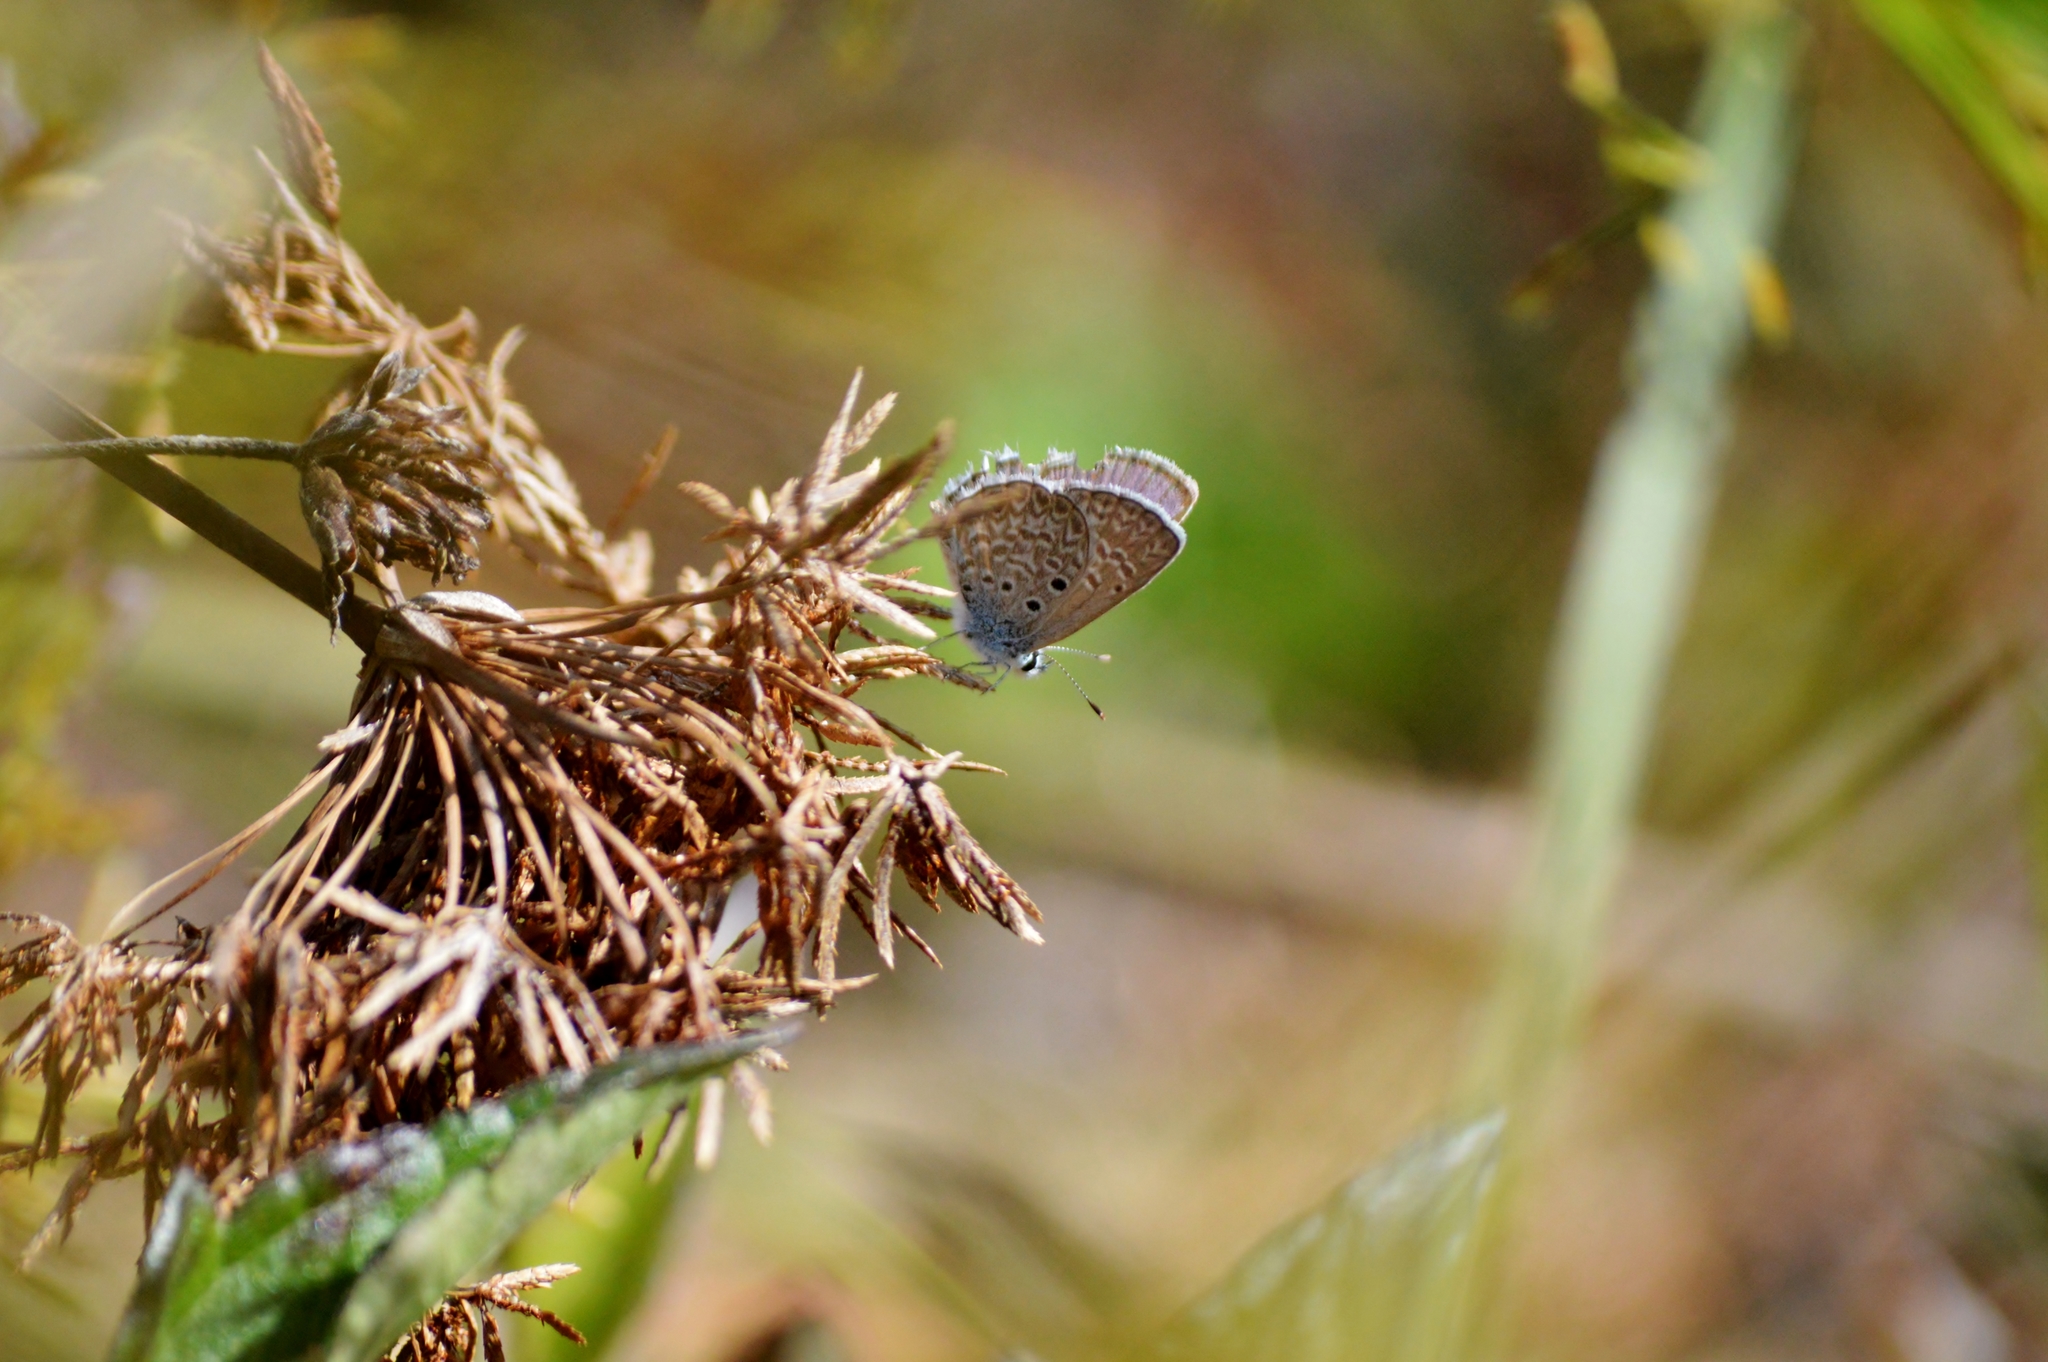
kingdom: Animalia
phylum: Arthropoda
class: Insecta
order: Lepidoptera
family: Lycaenidae
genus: Hemiargus
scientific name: Hemiargus hanno
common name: Common blue
